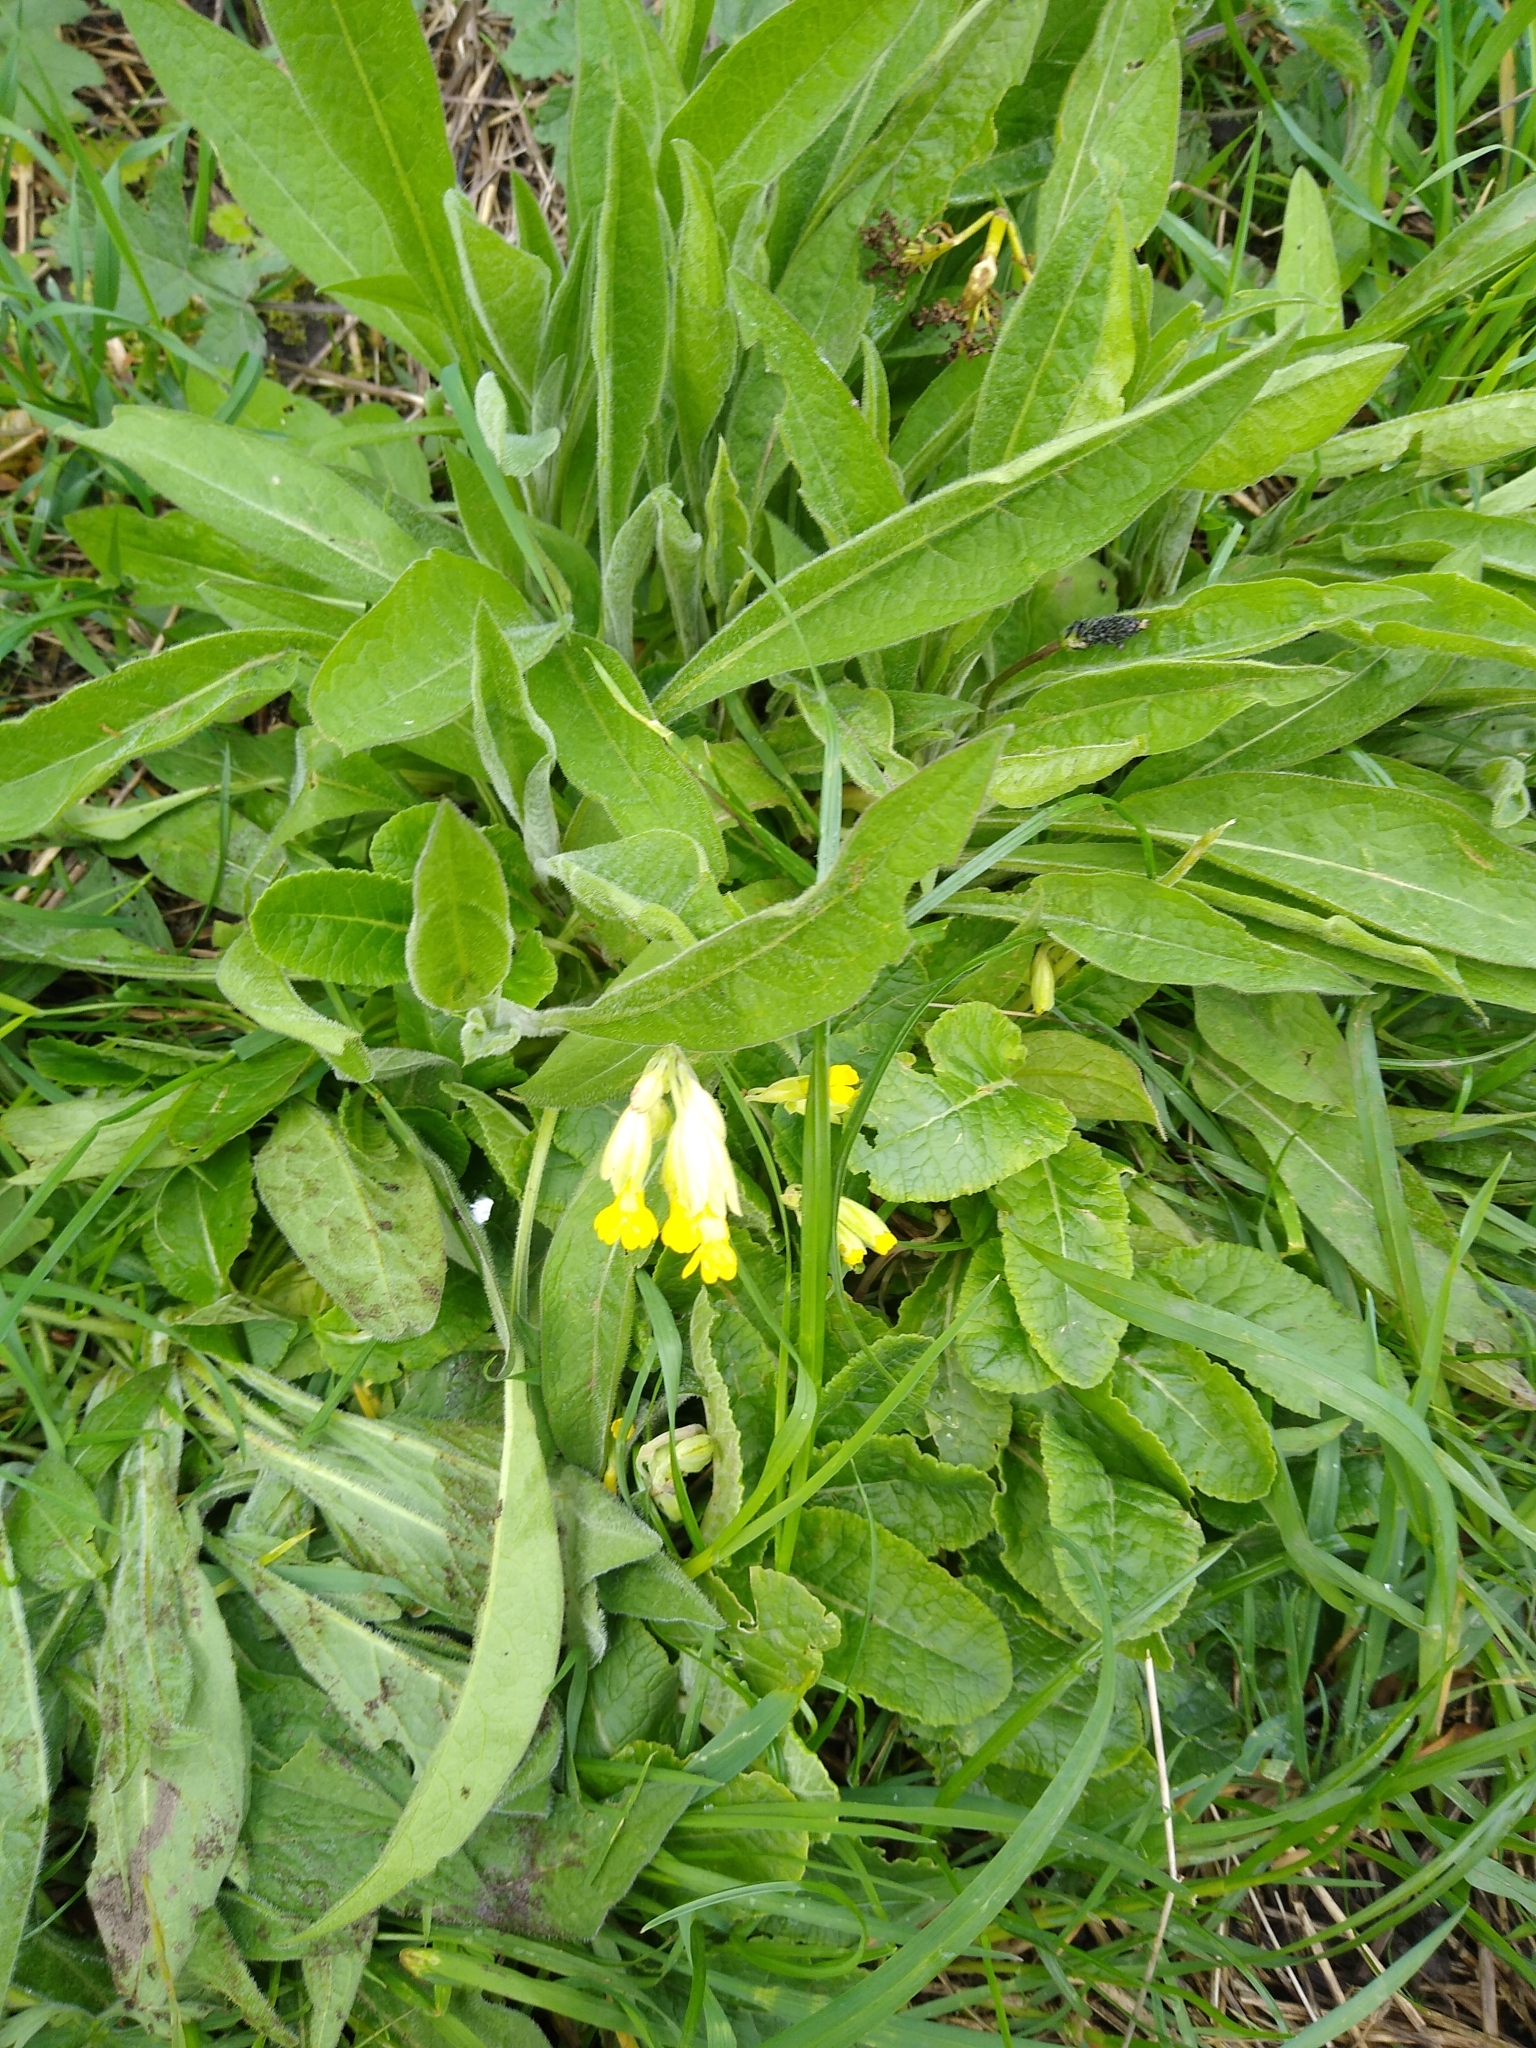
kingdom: Plantae
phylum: Tracheophyta
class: Magnoliopsida
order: Ericales
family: Primulaceae
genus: Primula
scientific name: Primula veris
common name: Cowslip
